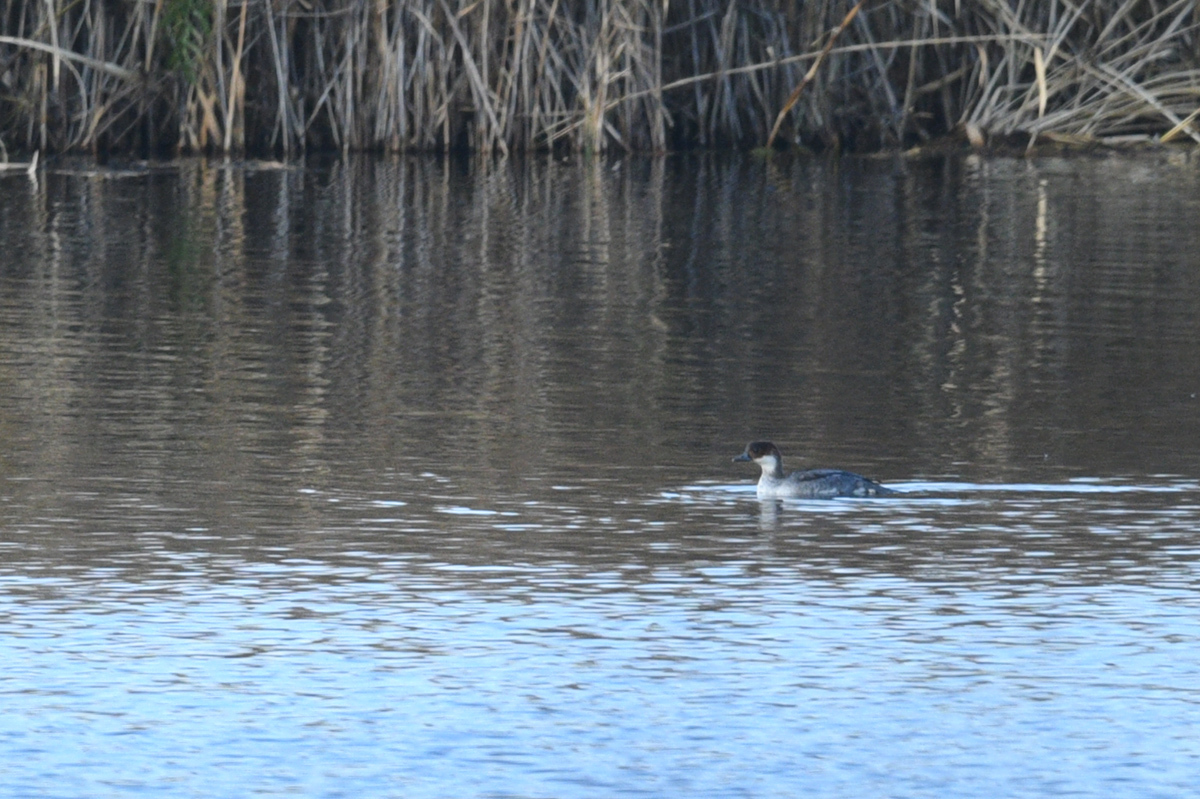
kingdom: Animalia
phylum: Chordata
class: Aves
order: Anseriformes
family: Anatidae
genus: Mergellus
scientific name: Mergellus albellus
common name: Smew
